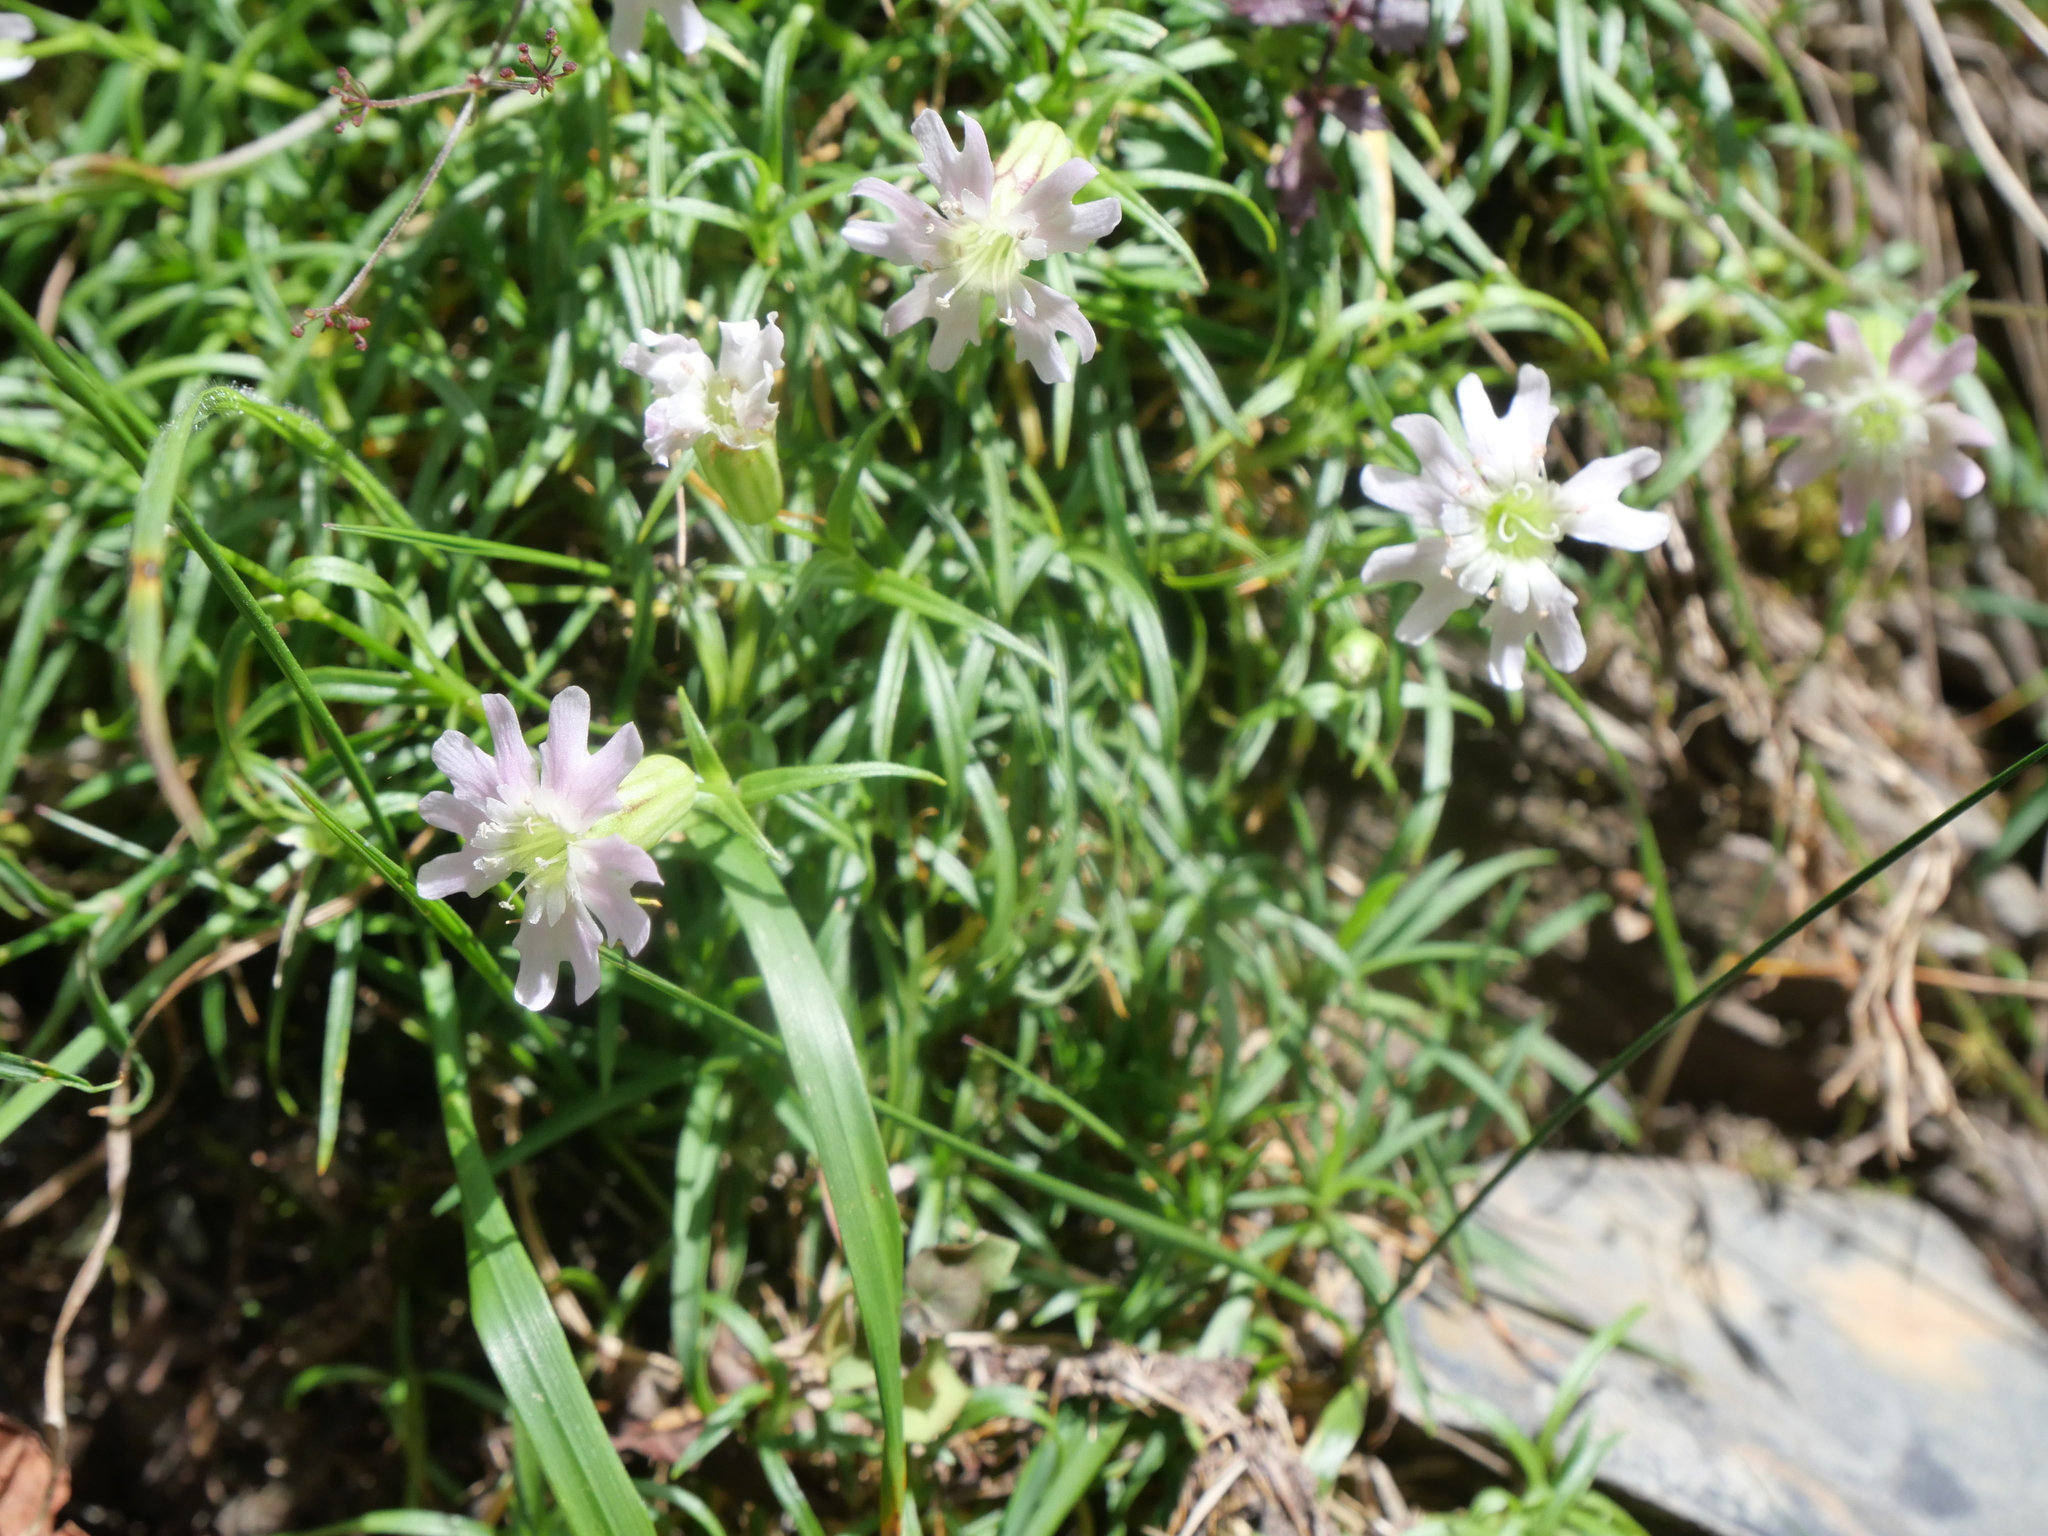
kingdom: Plantae
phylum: Tracheophyta
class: Magnoliopsida
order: Caryophyllales
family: Caryophyllaceae
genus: Silene
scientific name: Silene morrisonmontana
